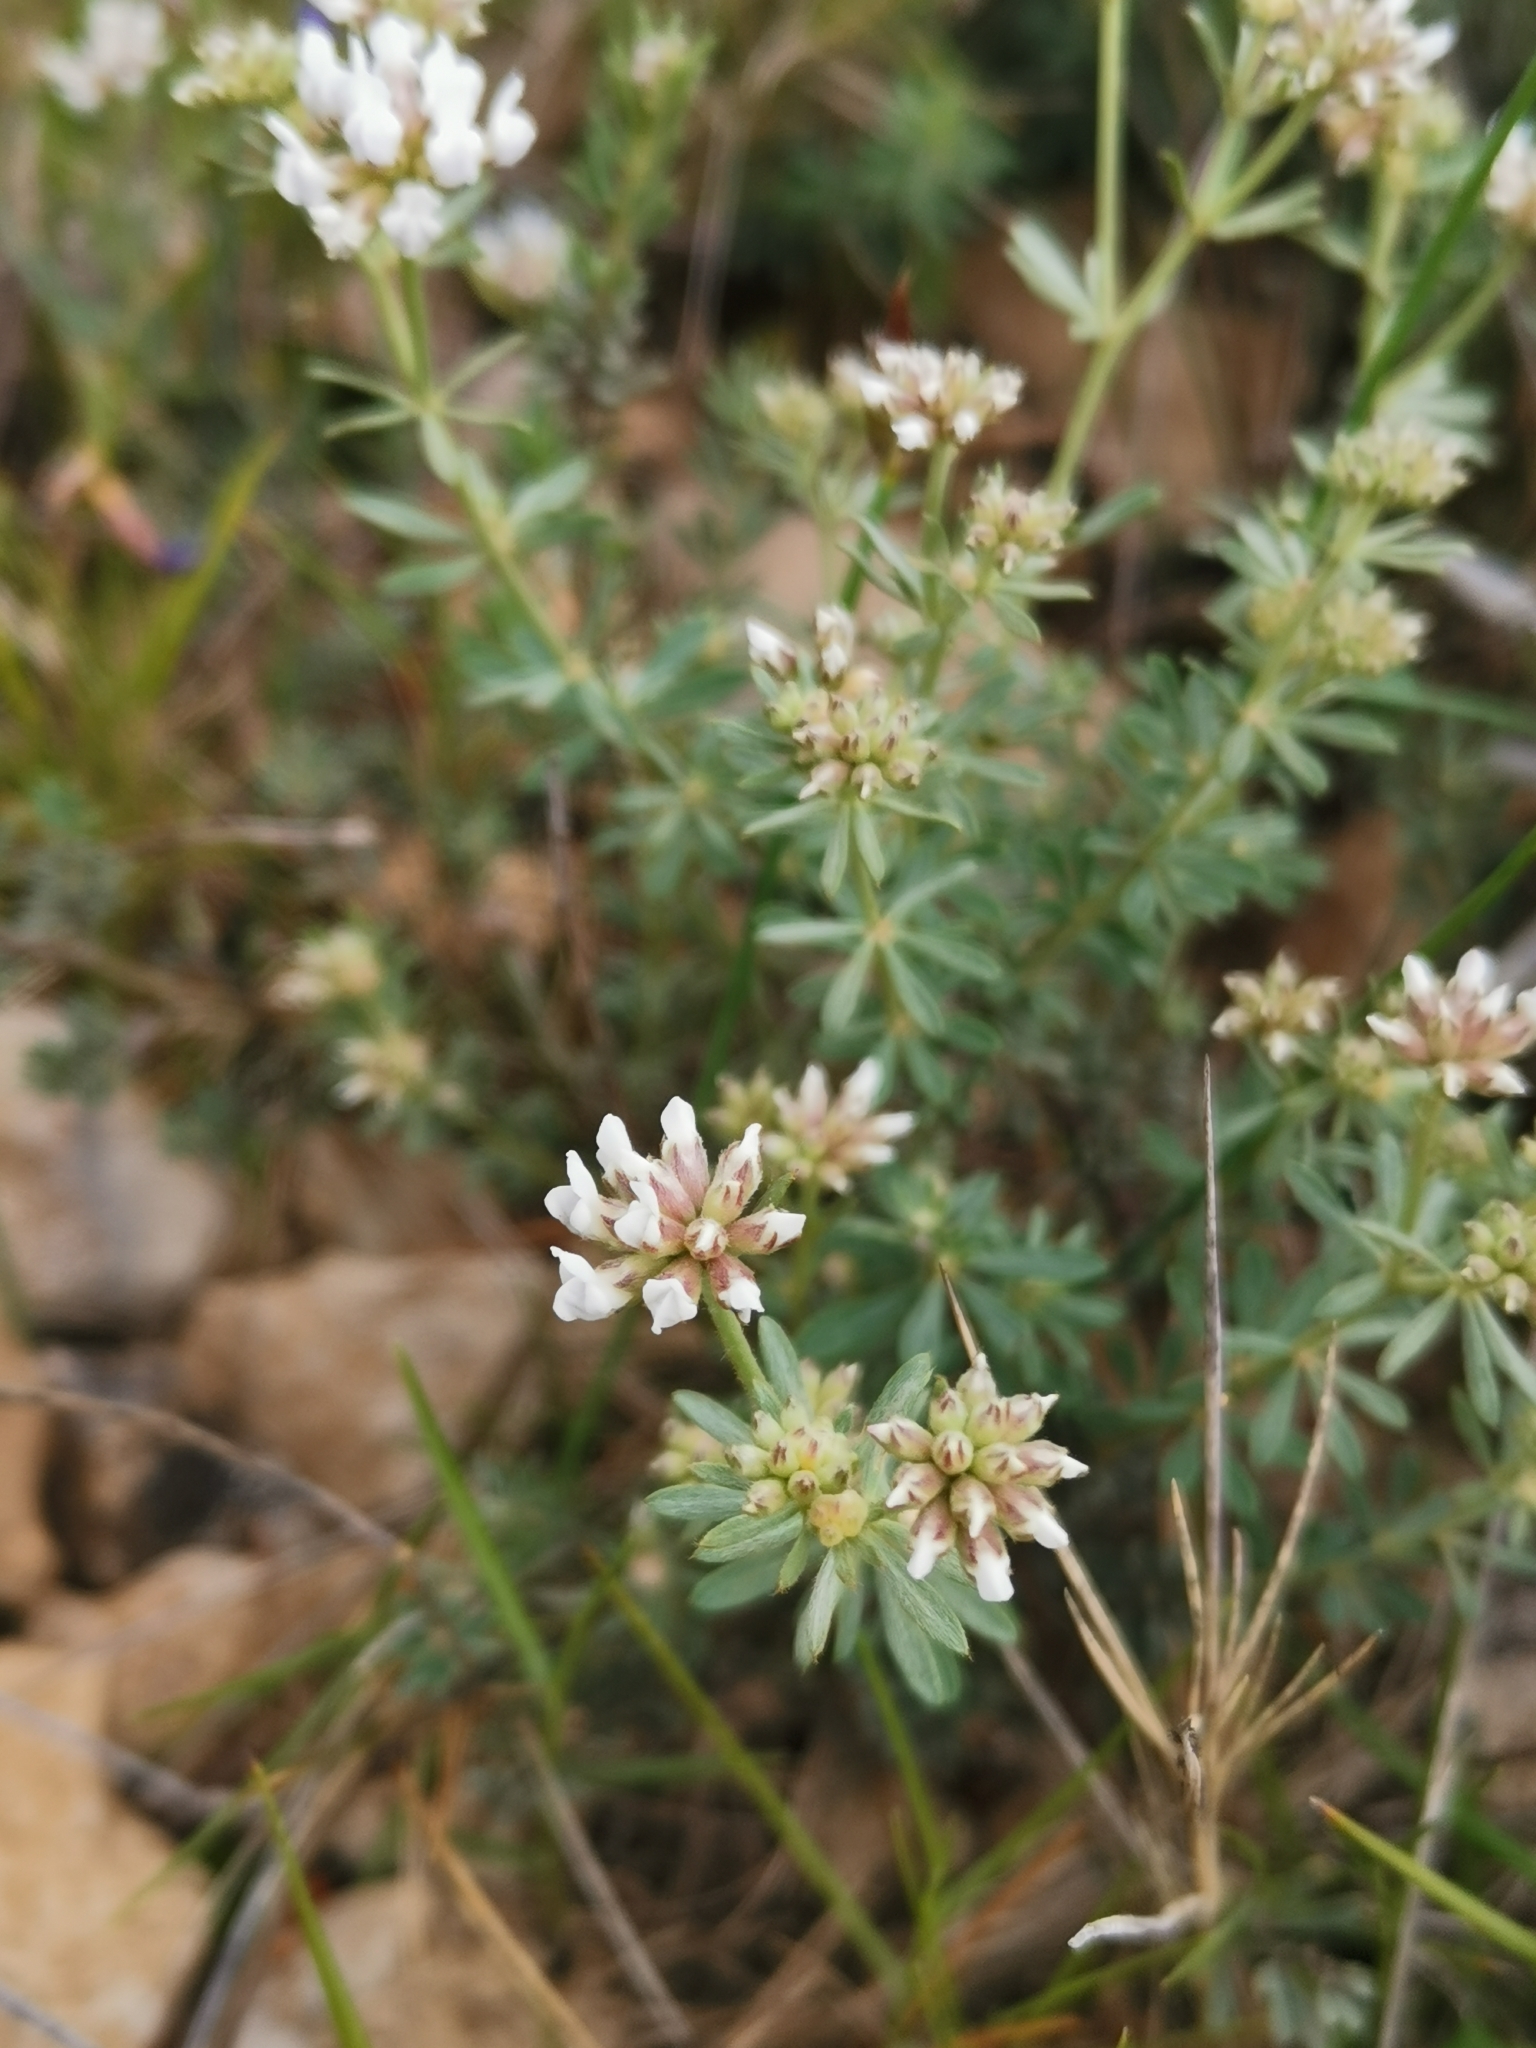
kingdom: Plantae
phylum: Tracheophyta
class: Magnoliopsida
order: Fabales
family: Fabaceae
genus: Lotus
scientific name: Lotus dorycnium
